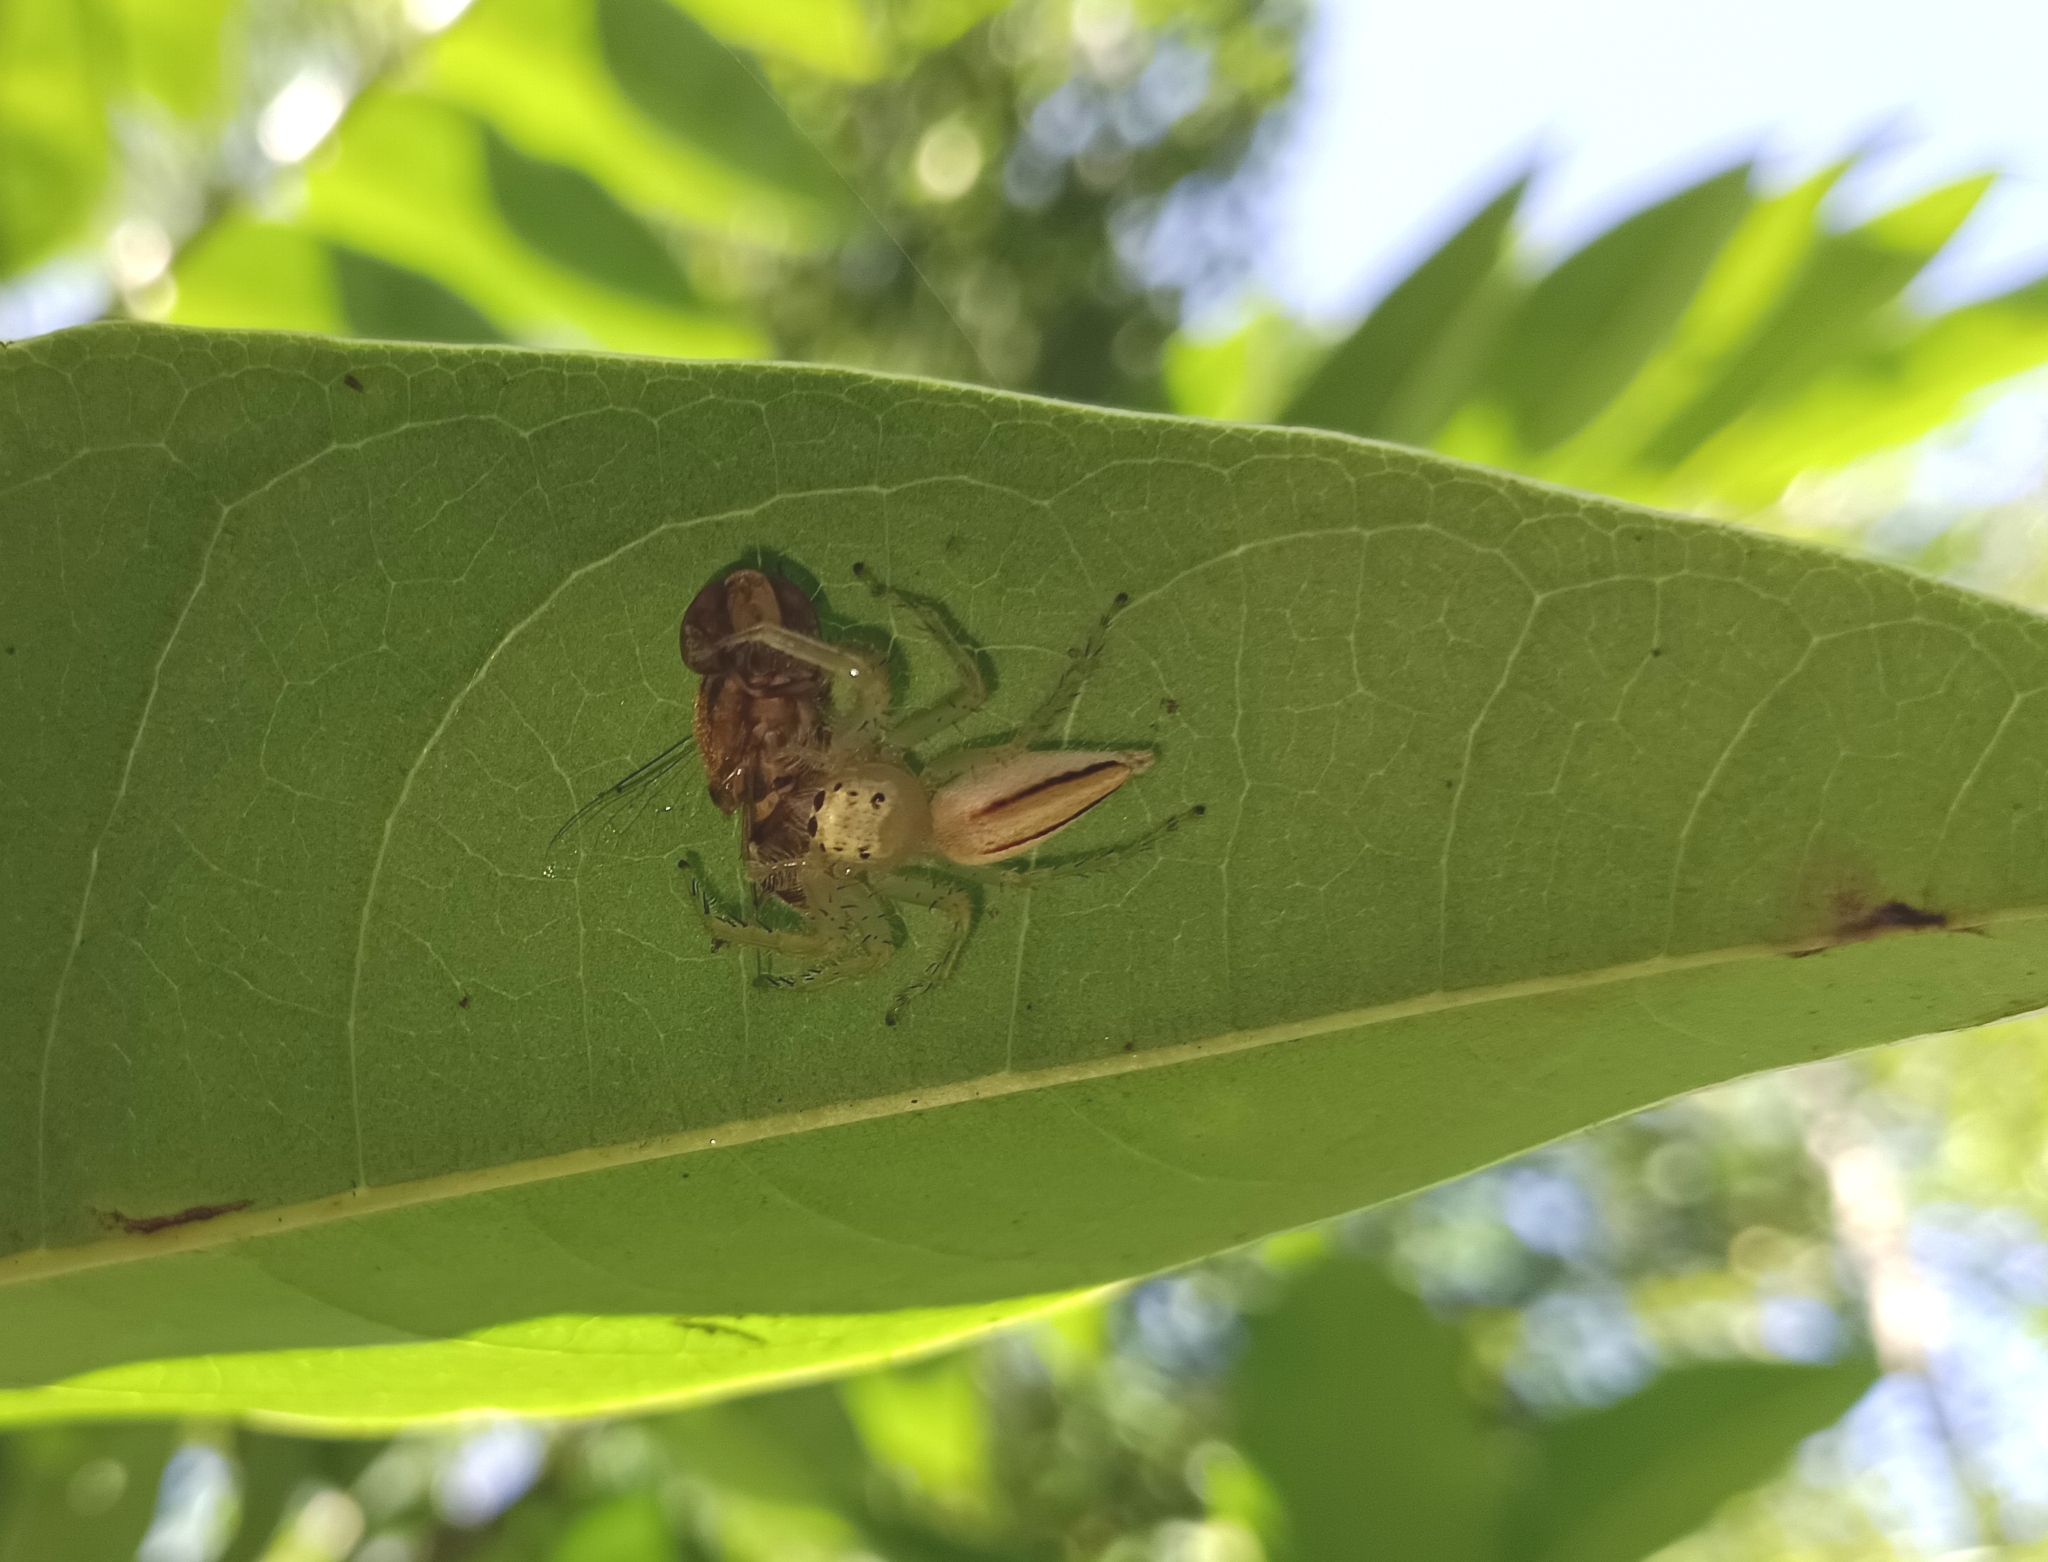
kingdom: Animalia
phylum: Arthropoda
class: Arachnida
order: Araneae
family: Salticidae
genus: Telamonia
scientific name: Telamonia dimidiata
